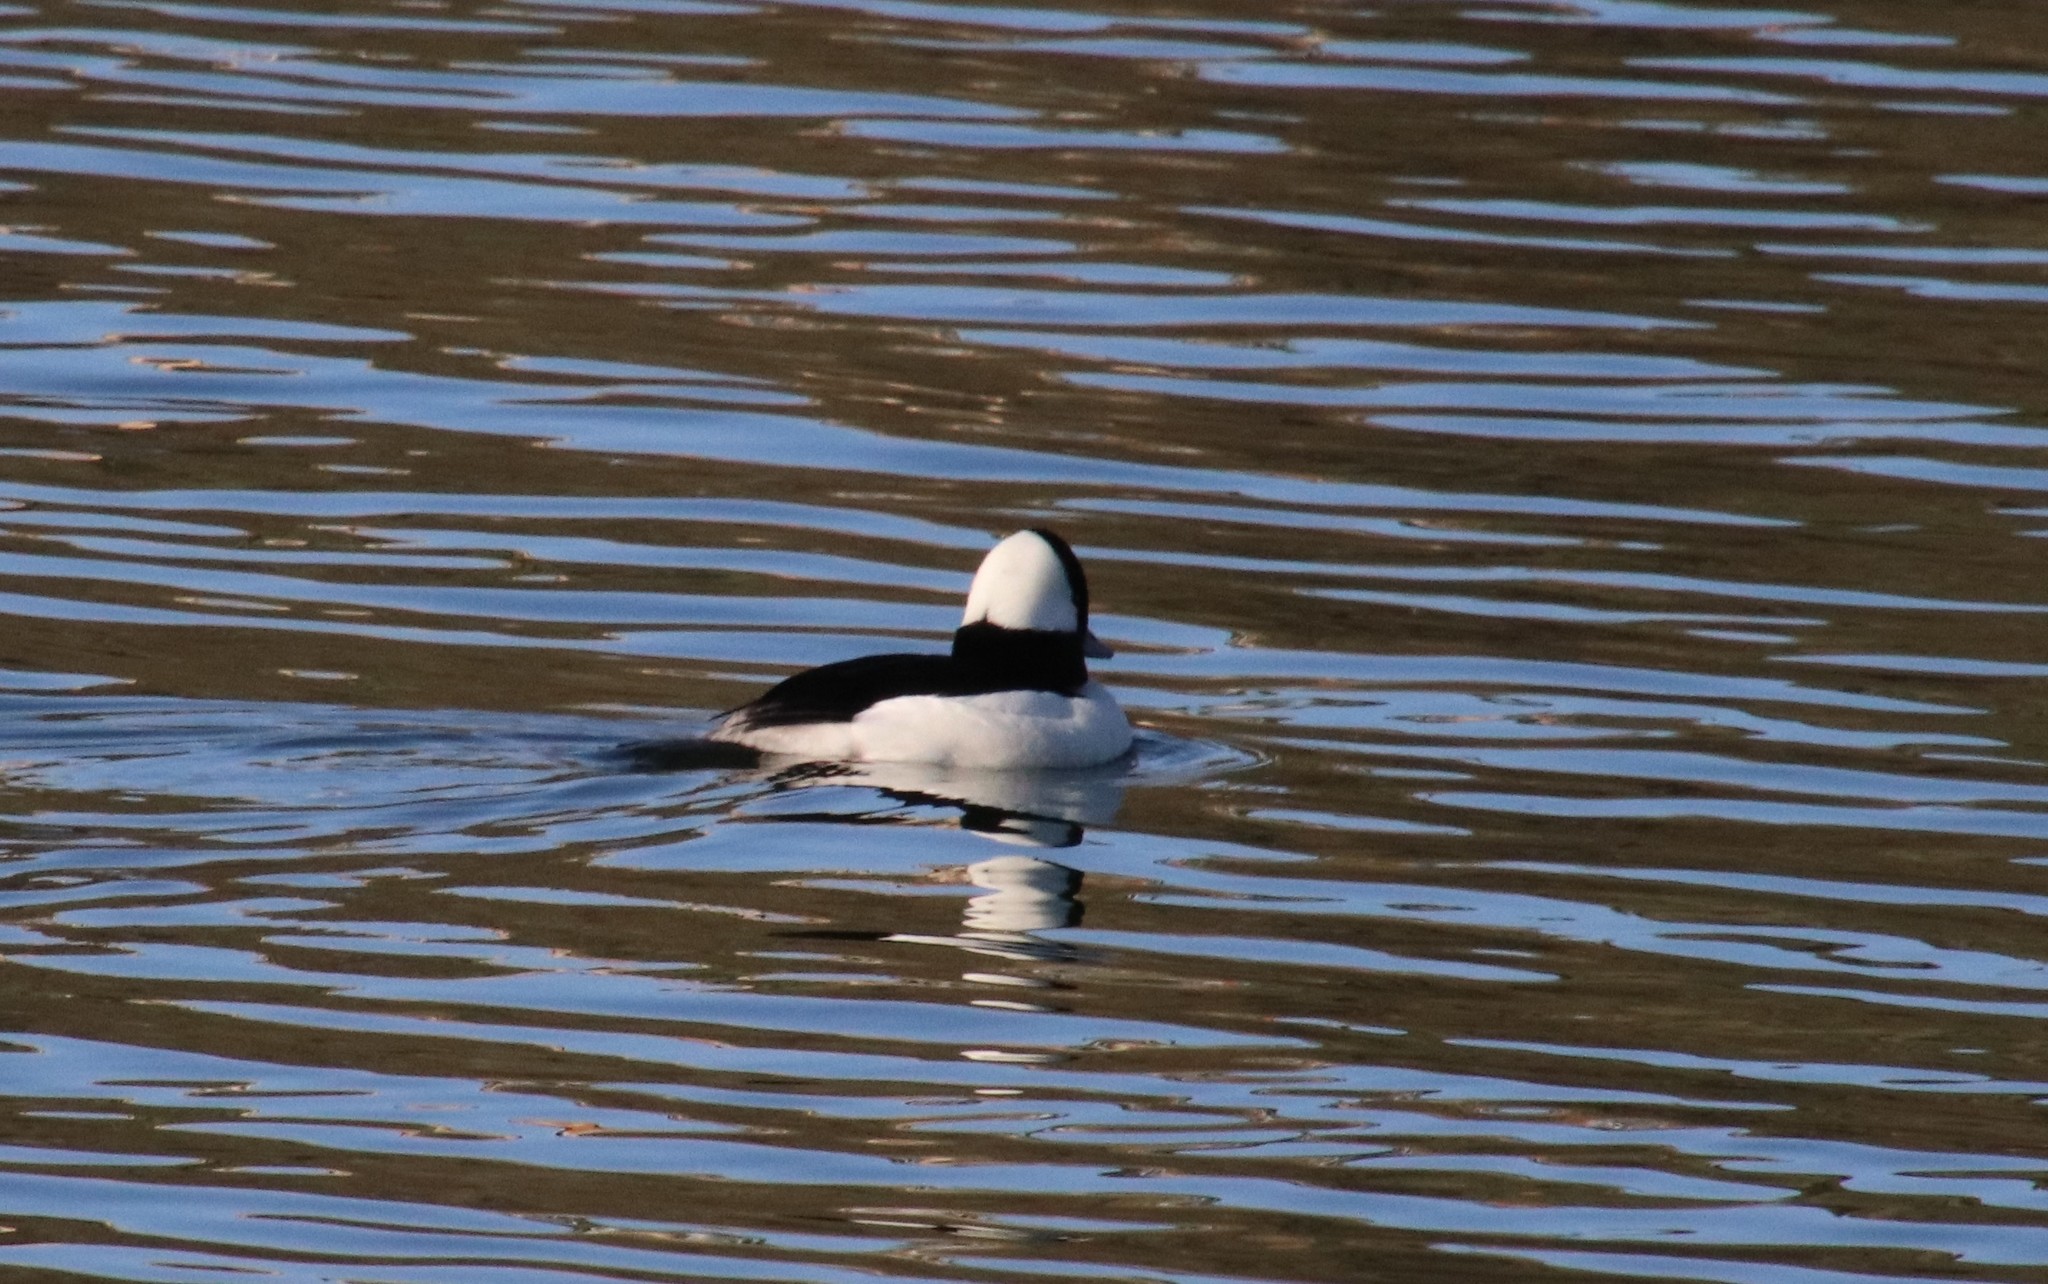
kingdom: Animalia
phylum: Chordata
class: Aves
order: Anseriformes
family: Anatidae
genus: Bucephala
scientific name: Bucephala albeola
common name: Bufflehead
